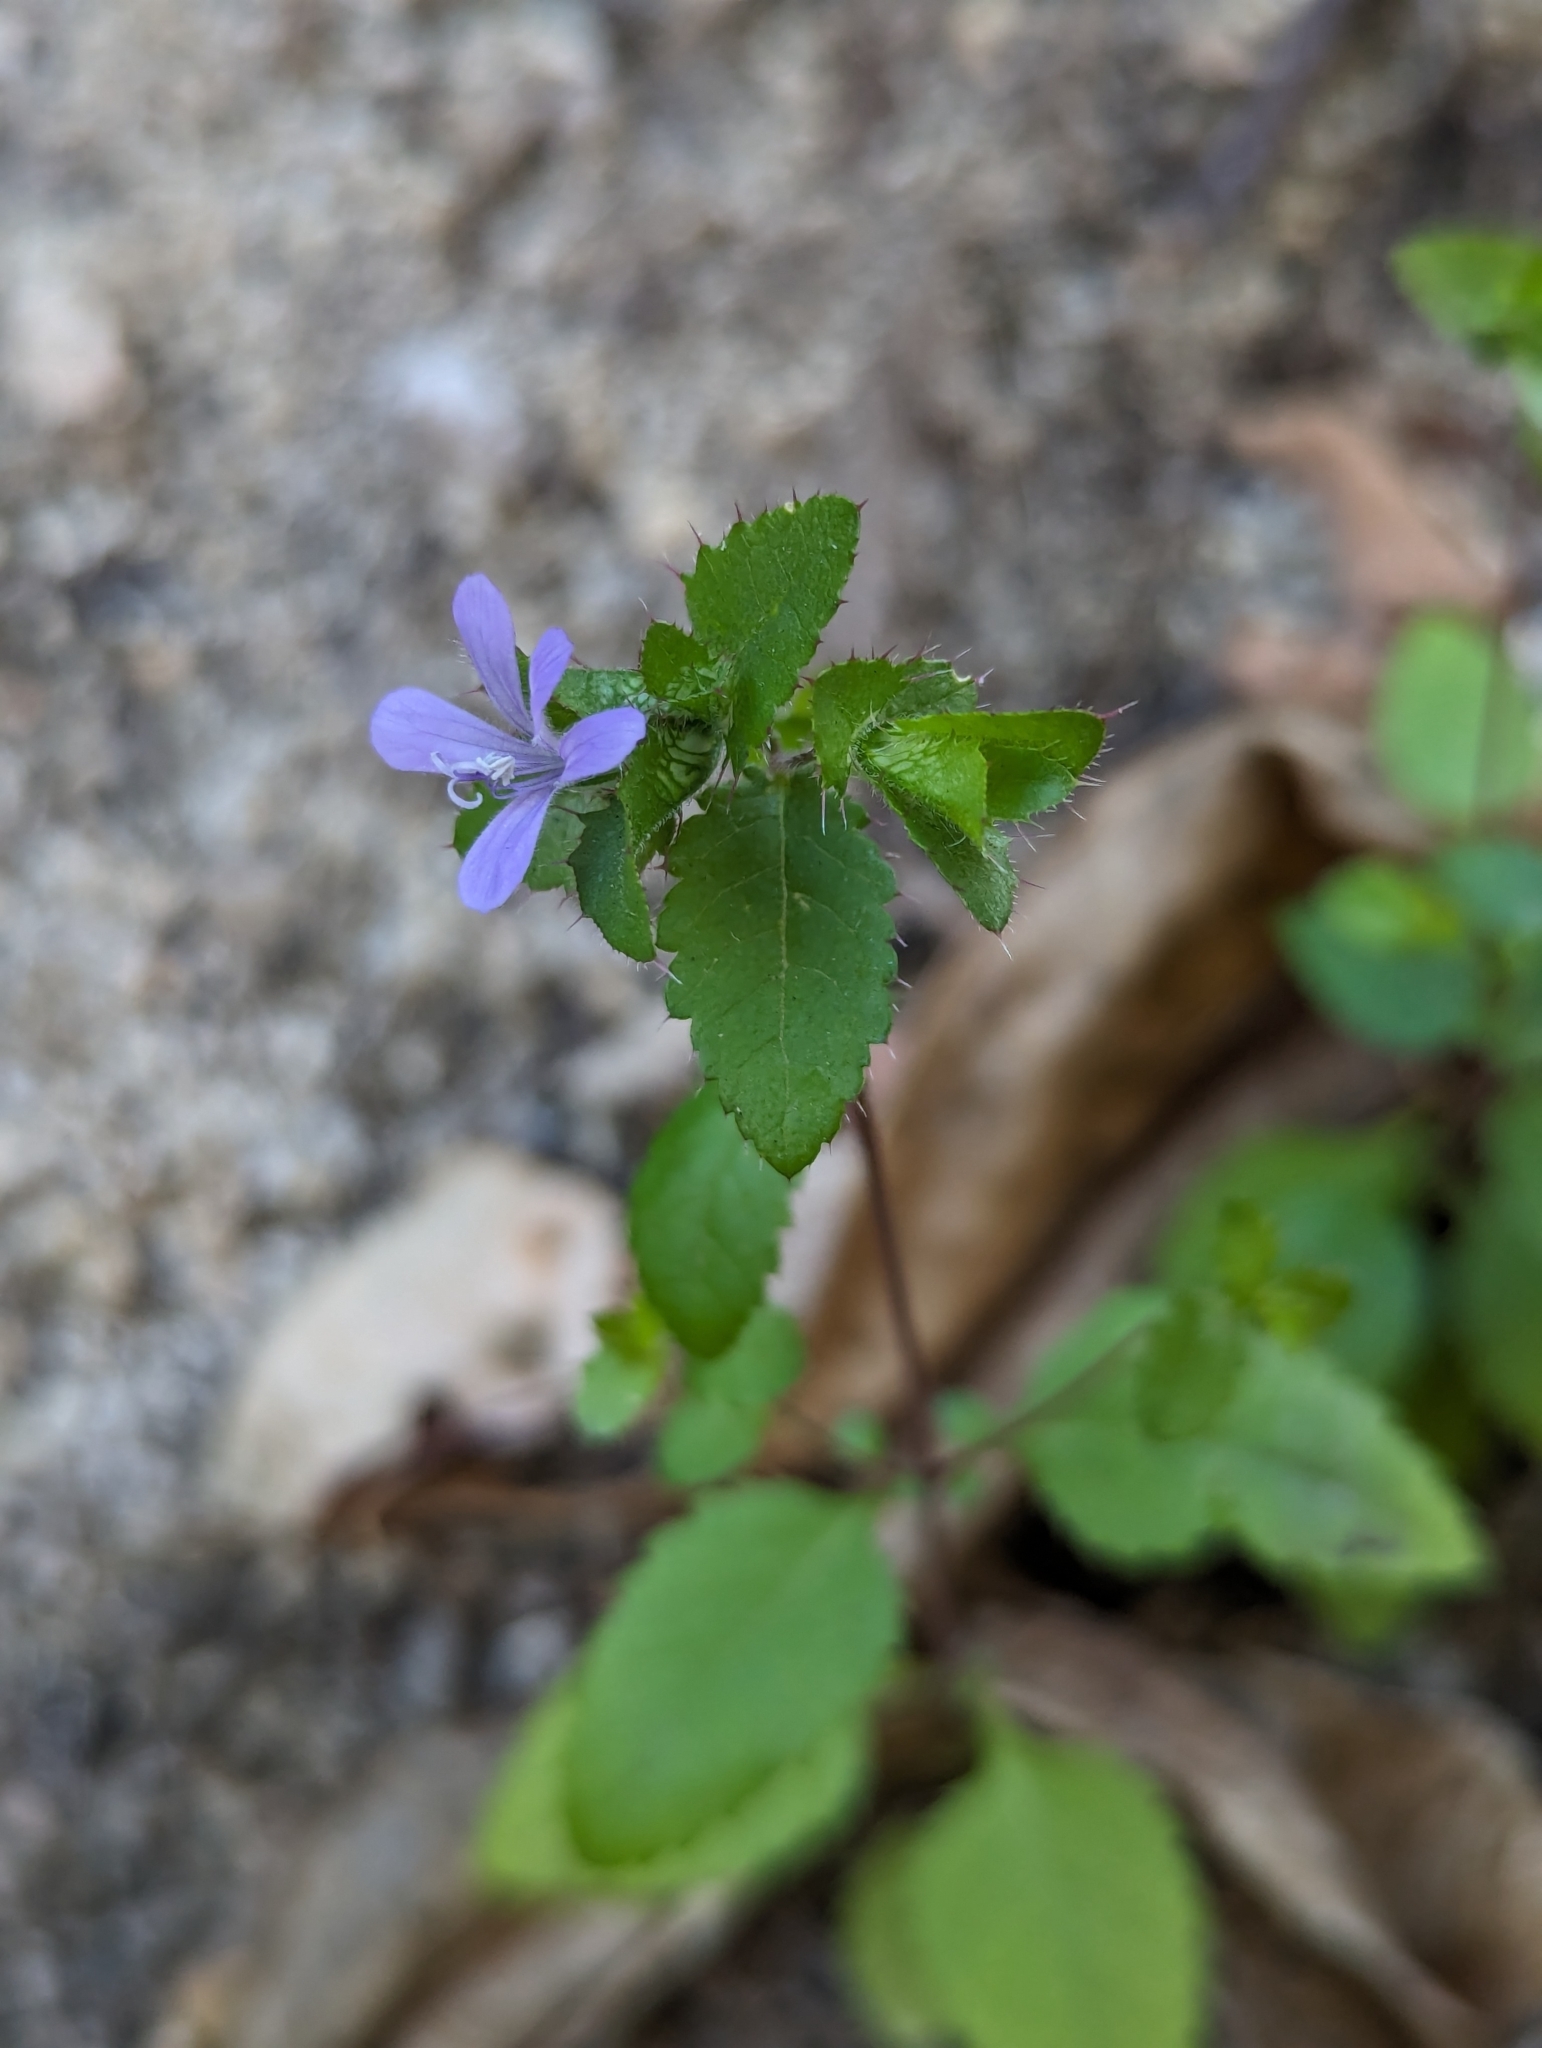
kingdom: Plantae
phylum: Tracheophyta
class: Magnoliopsida
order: Ericales
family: Polemoniaceae
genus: Loeselia
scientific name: Loeselia ciliata
